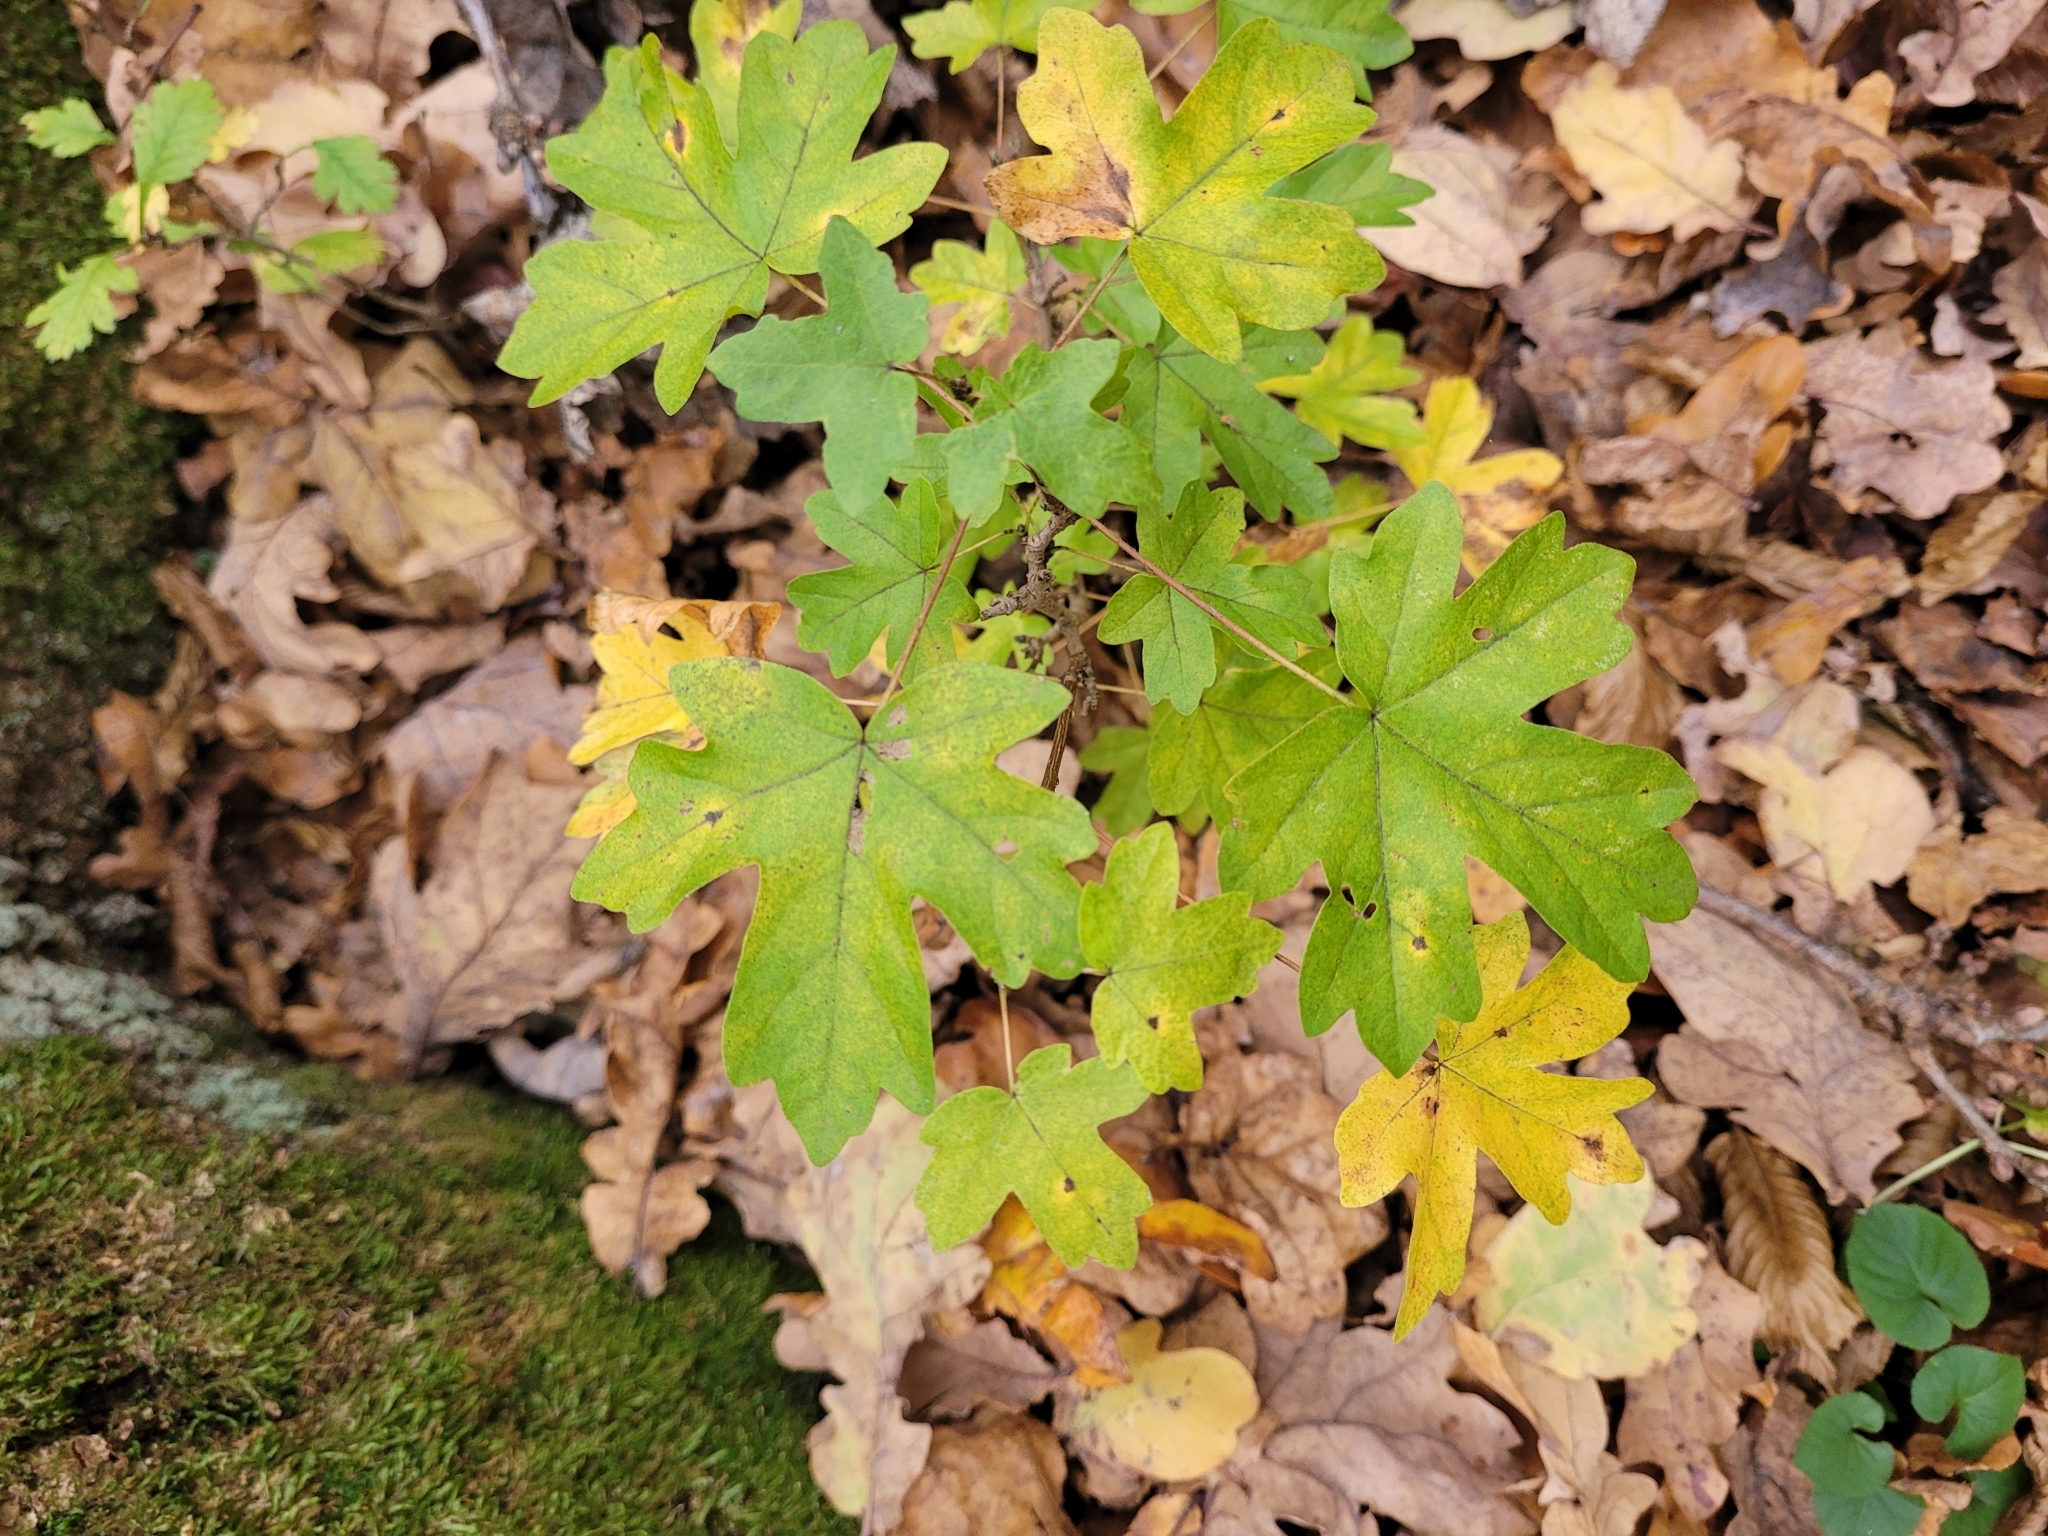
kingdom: Plantae
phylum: Tracheophyta
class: Magnoliopsida
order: Sapindales
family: Sapindaceae
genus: Acer
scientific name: Acer campestre
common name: Field maple
